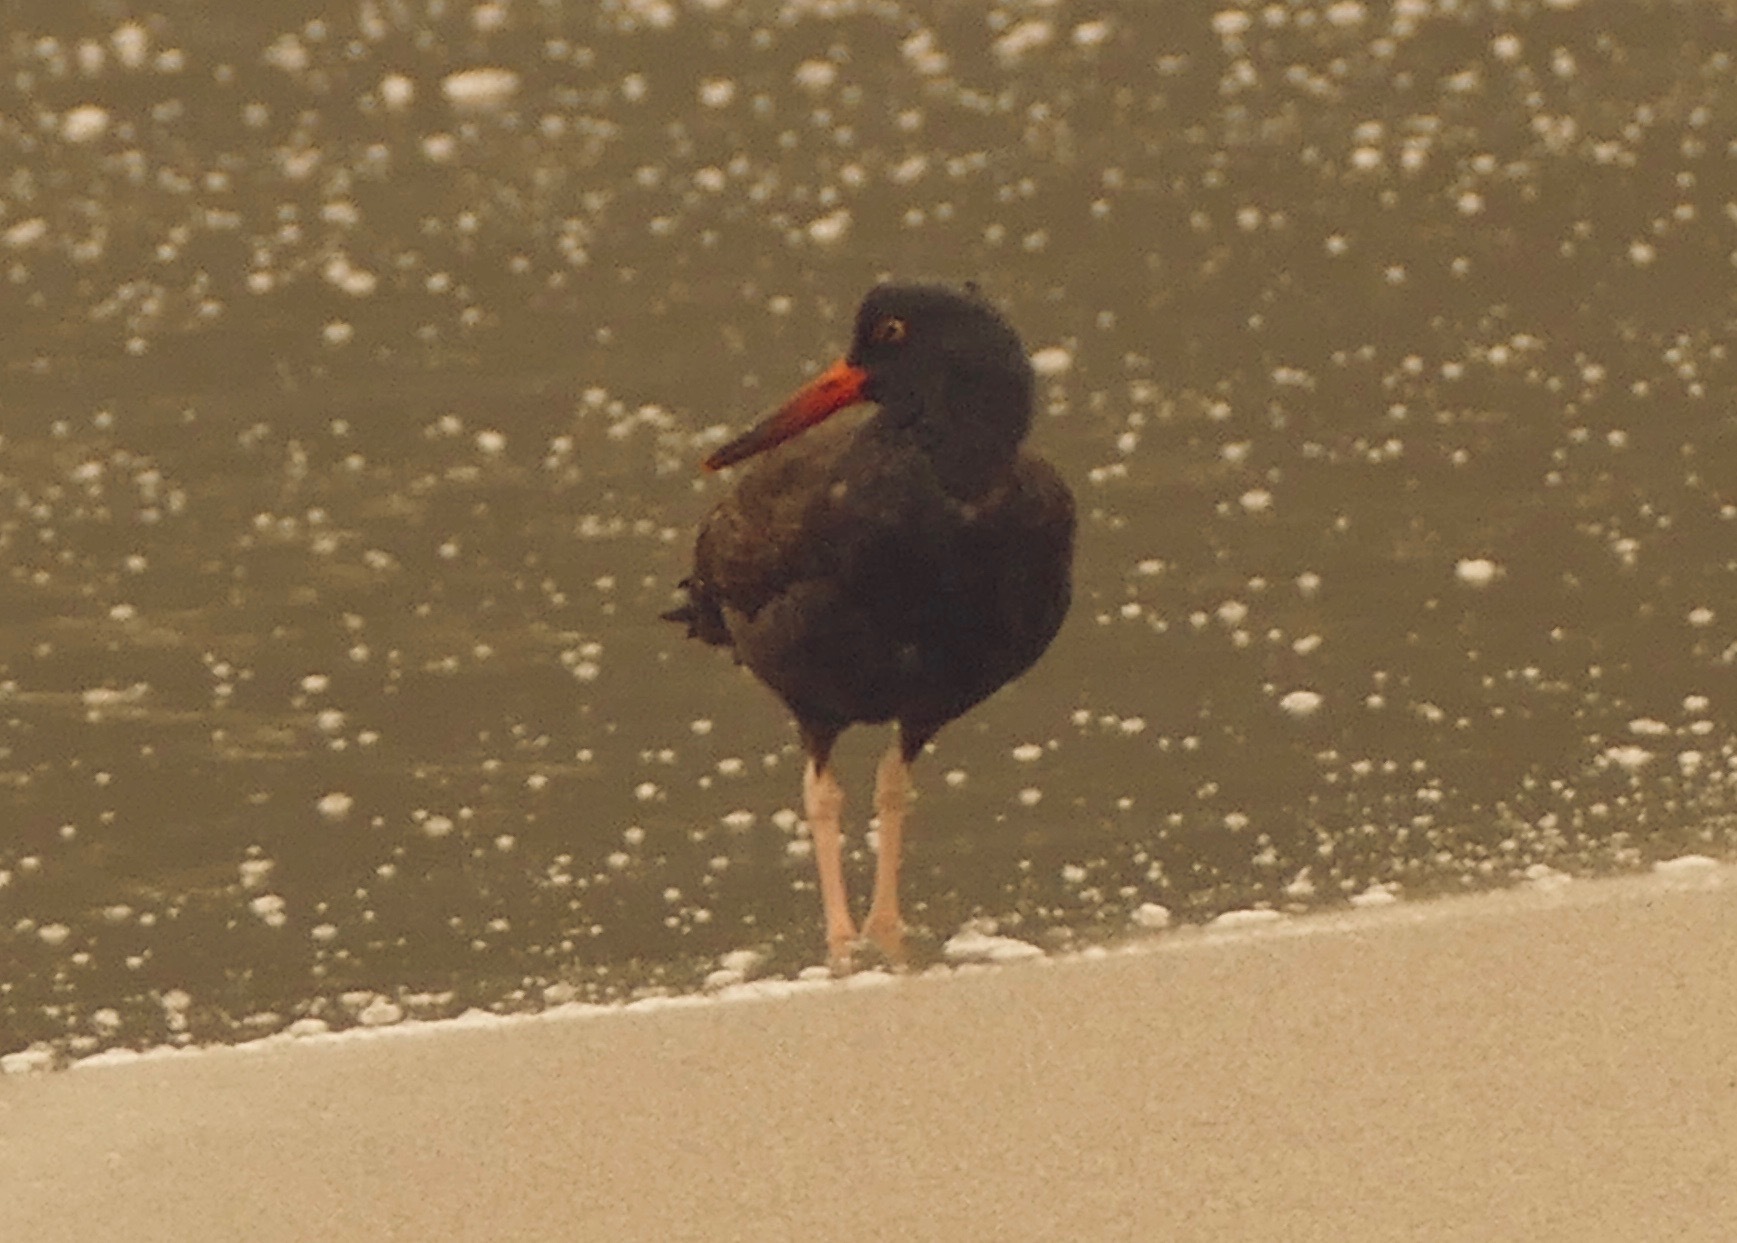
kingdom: Animalia
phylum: Chordata
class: Aves
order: Charadriiformes
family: Haematopodidae
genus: Haematopus
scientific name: Haematopus bachmani
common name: Black oystercatcher
